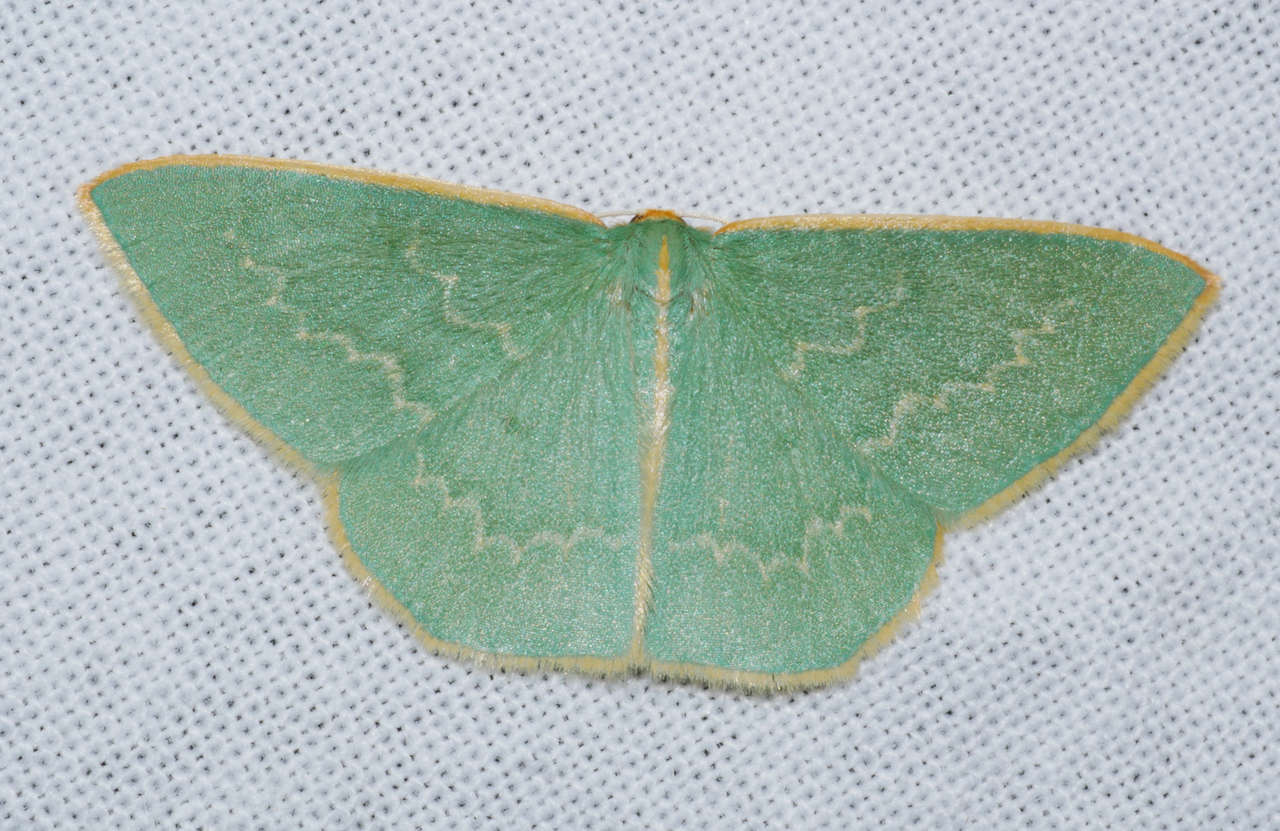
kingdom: Animalia
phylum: Arthropoda
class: Insecta
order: Lepidoptera
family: Geometridae
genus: Chlorocoma
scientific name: Chlorocoma melocrossa
